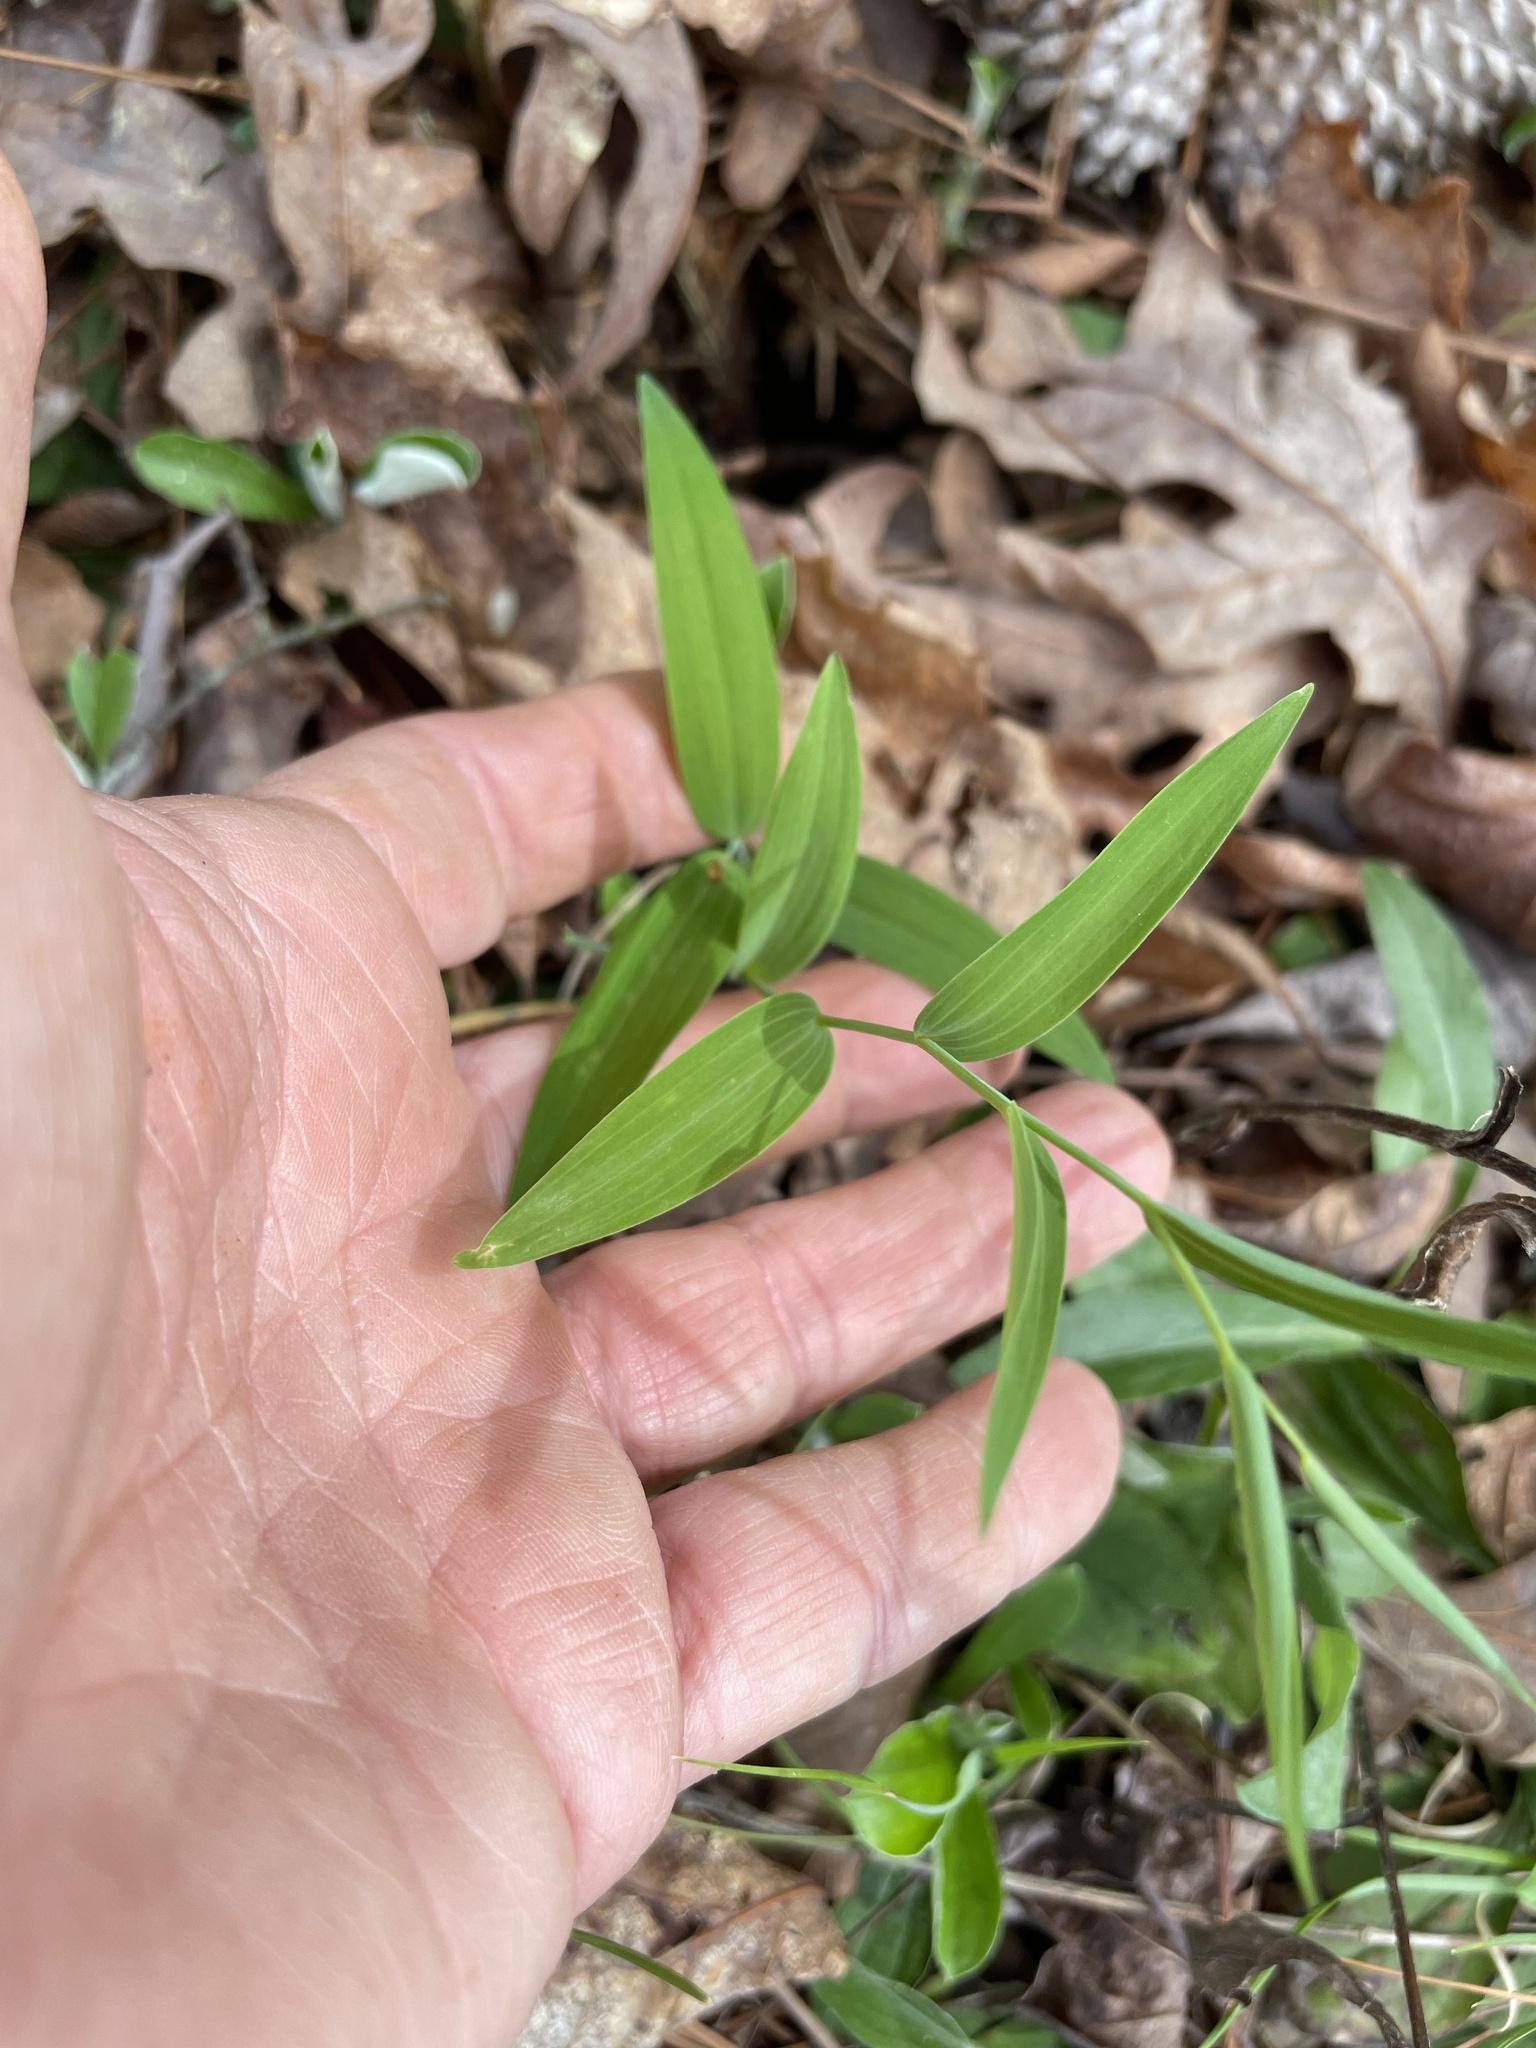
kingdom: Plantae
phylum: Tracheophyta
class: Liliopsida
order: Asparagales
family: Asparagaceae
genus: Polygonatum
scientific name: Polygonatum biflorum
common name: American solomon's-seal
